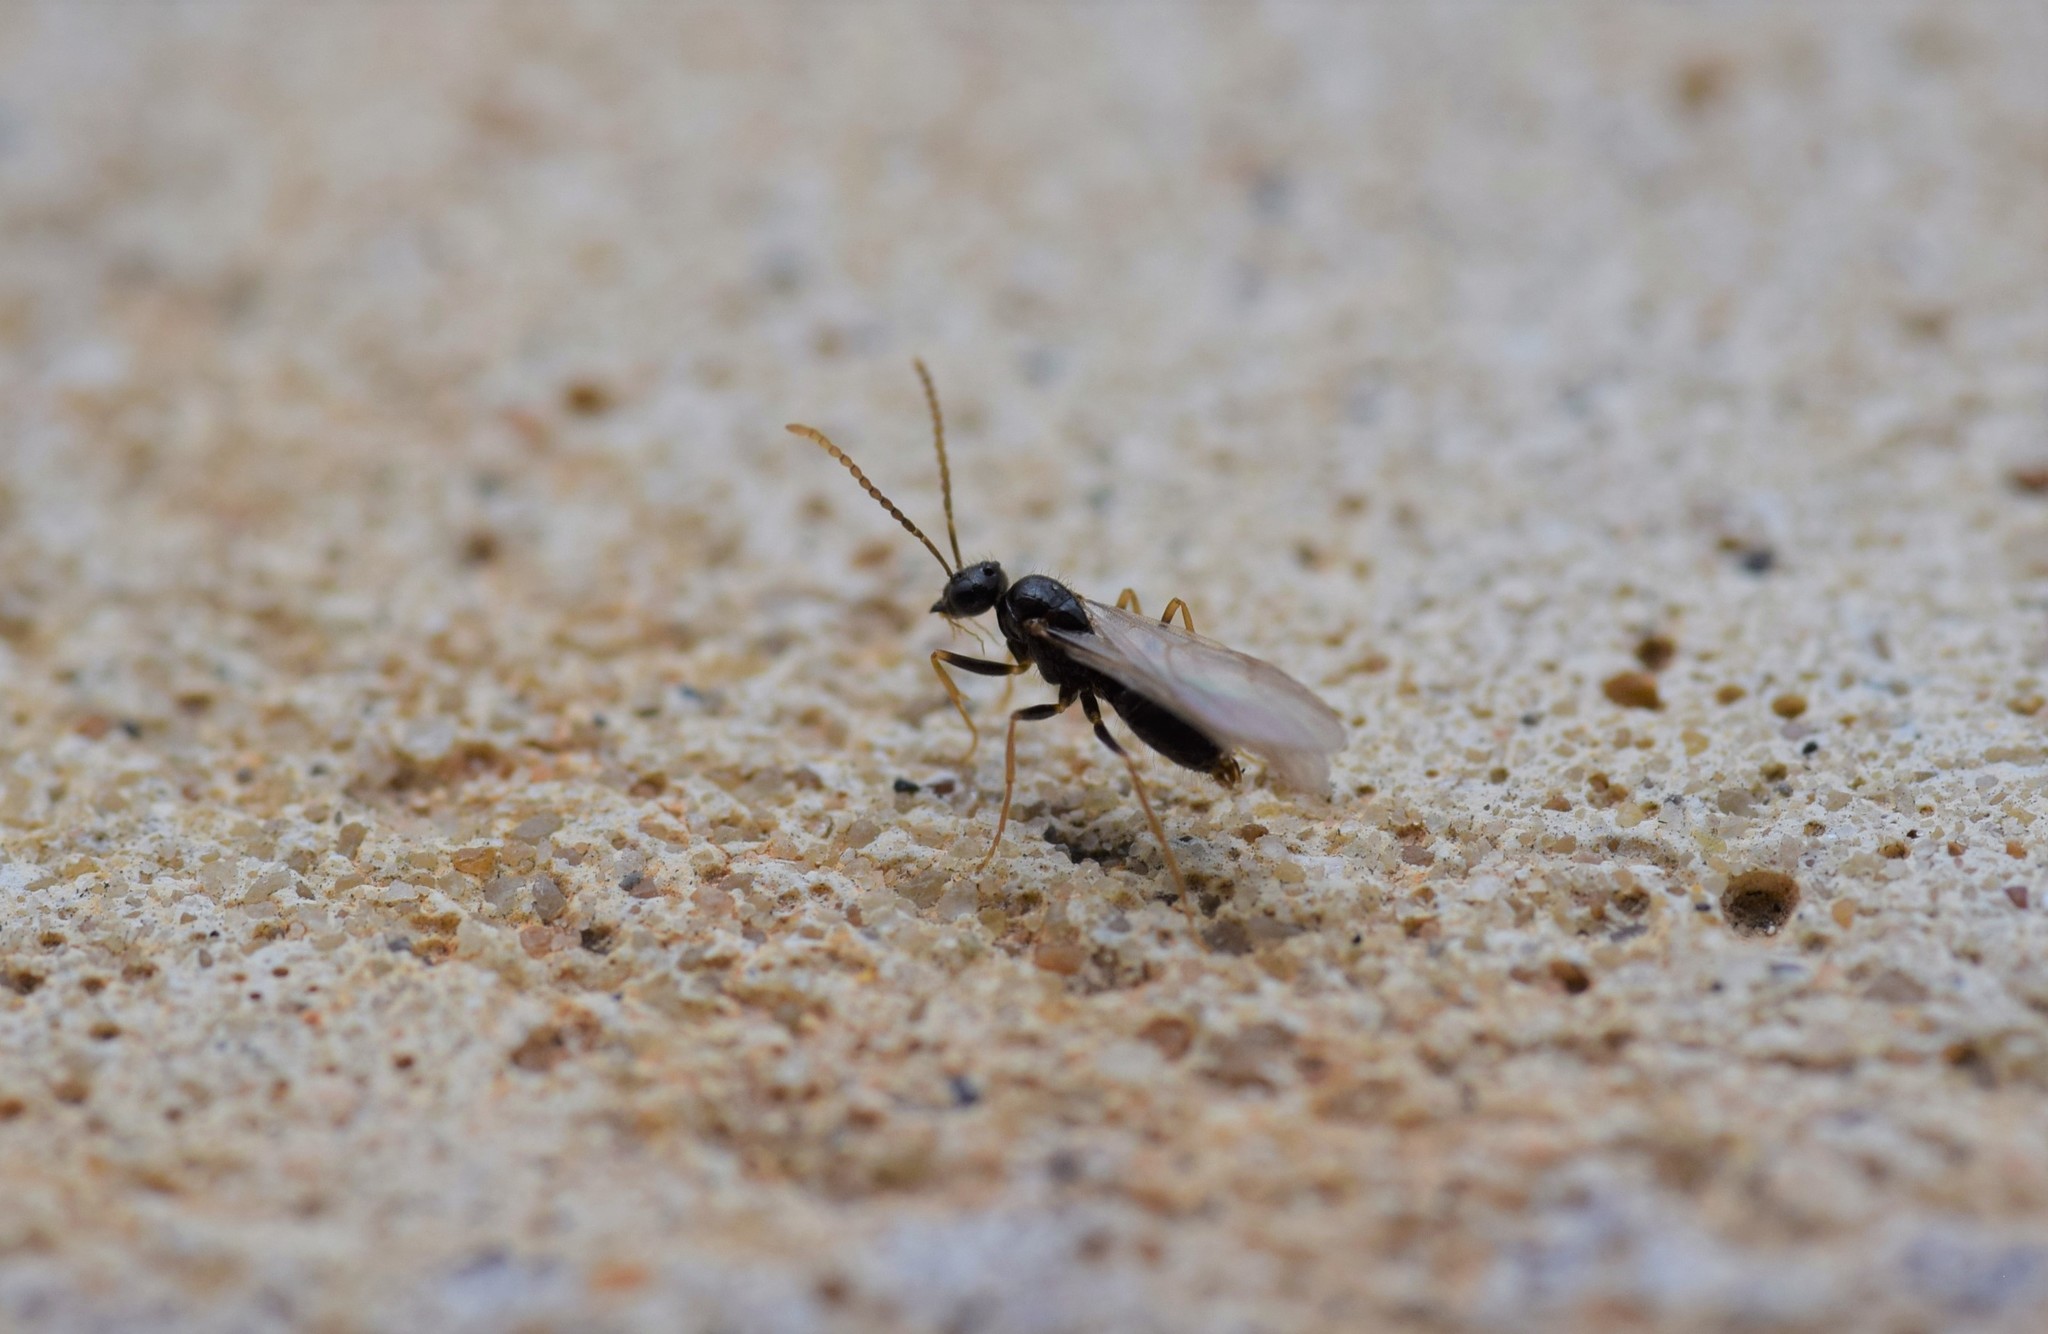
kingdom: Animalia
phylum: Arthropoda
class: Insecta
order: Hymenoptera
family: Formicidae
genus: Prenolepis
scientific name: Prenolepis imparis
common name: Small honey ant
